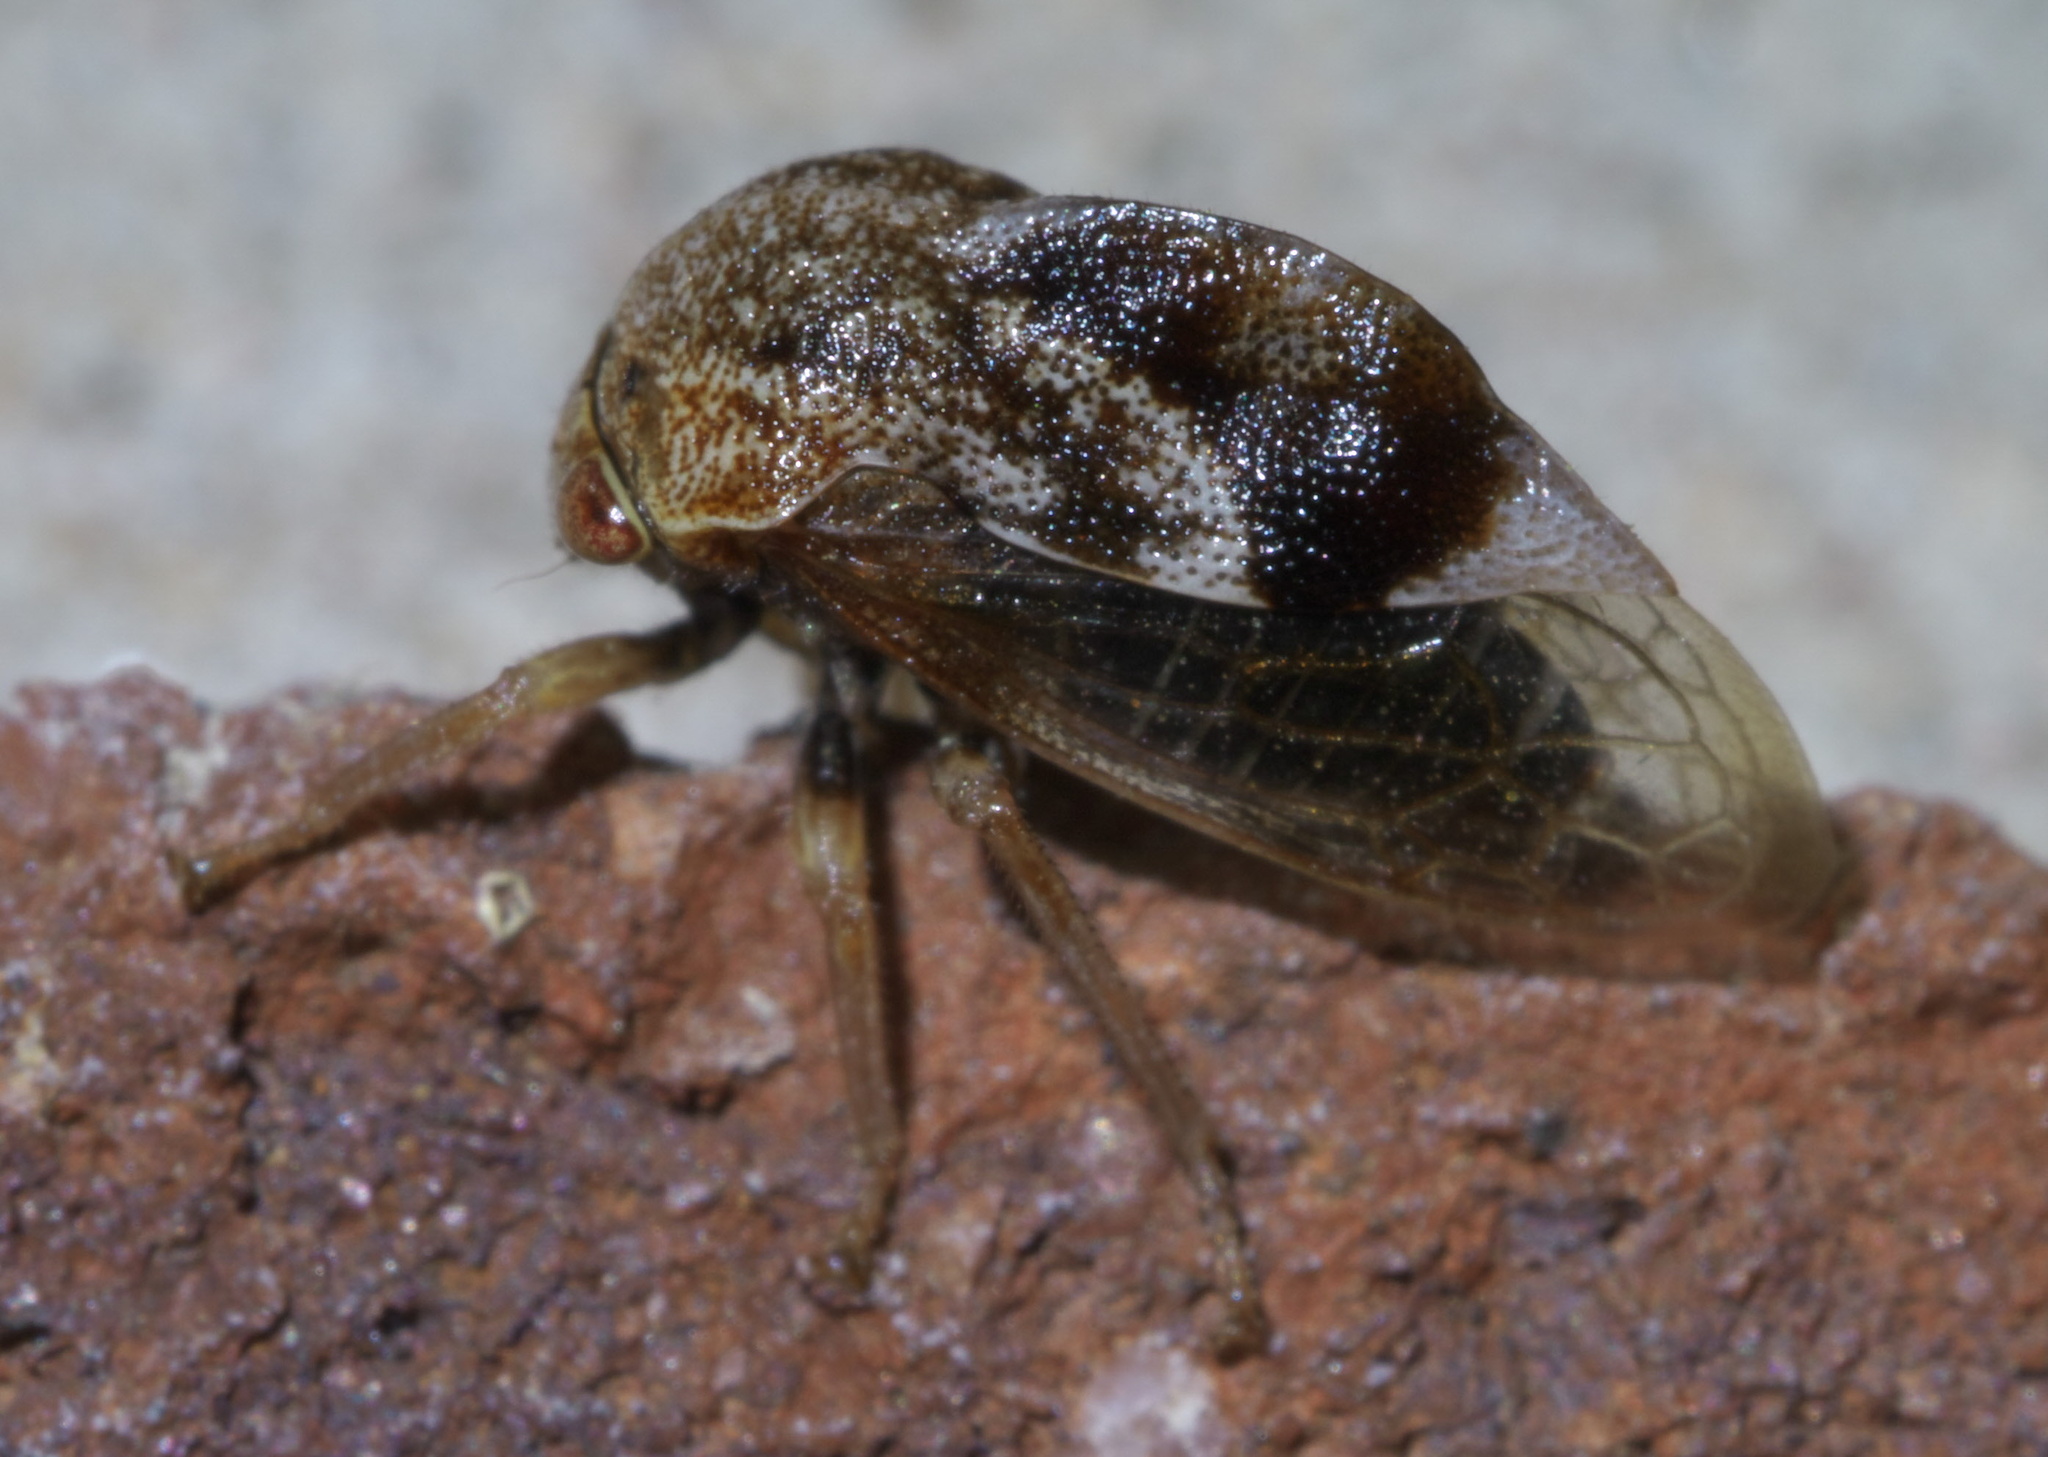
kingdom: Animalia
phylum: Arthropoda
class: Insecta
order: Hemiptera
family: Membracidae
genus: Xantholobus
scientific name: Xantholobus mutica
